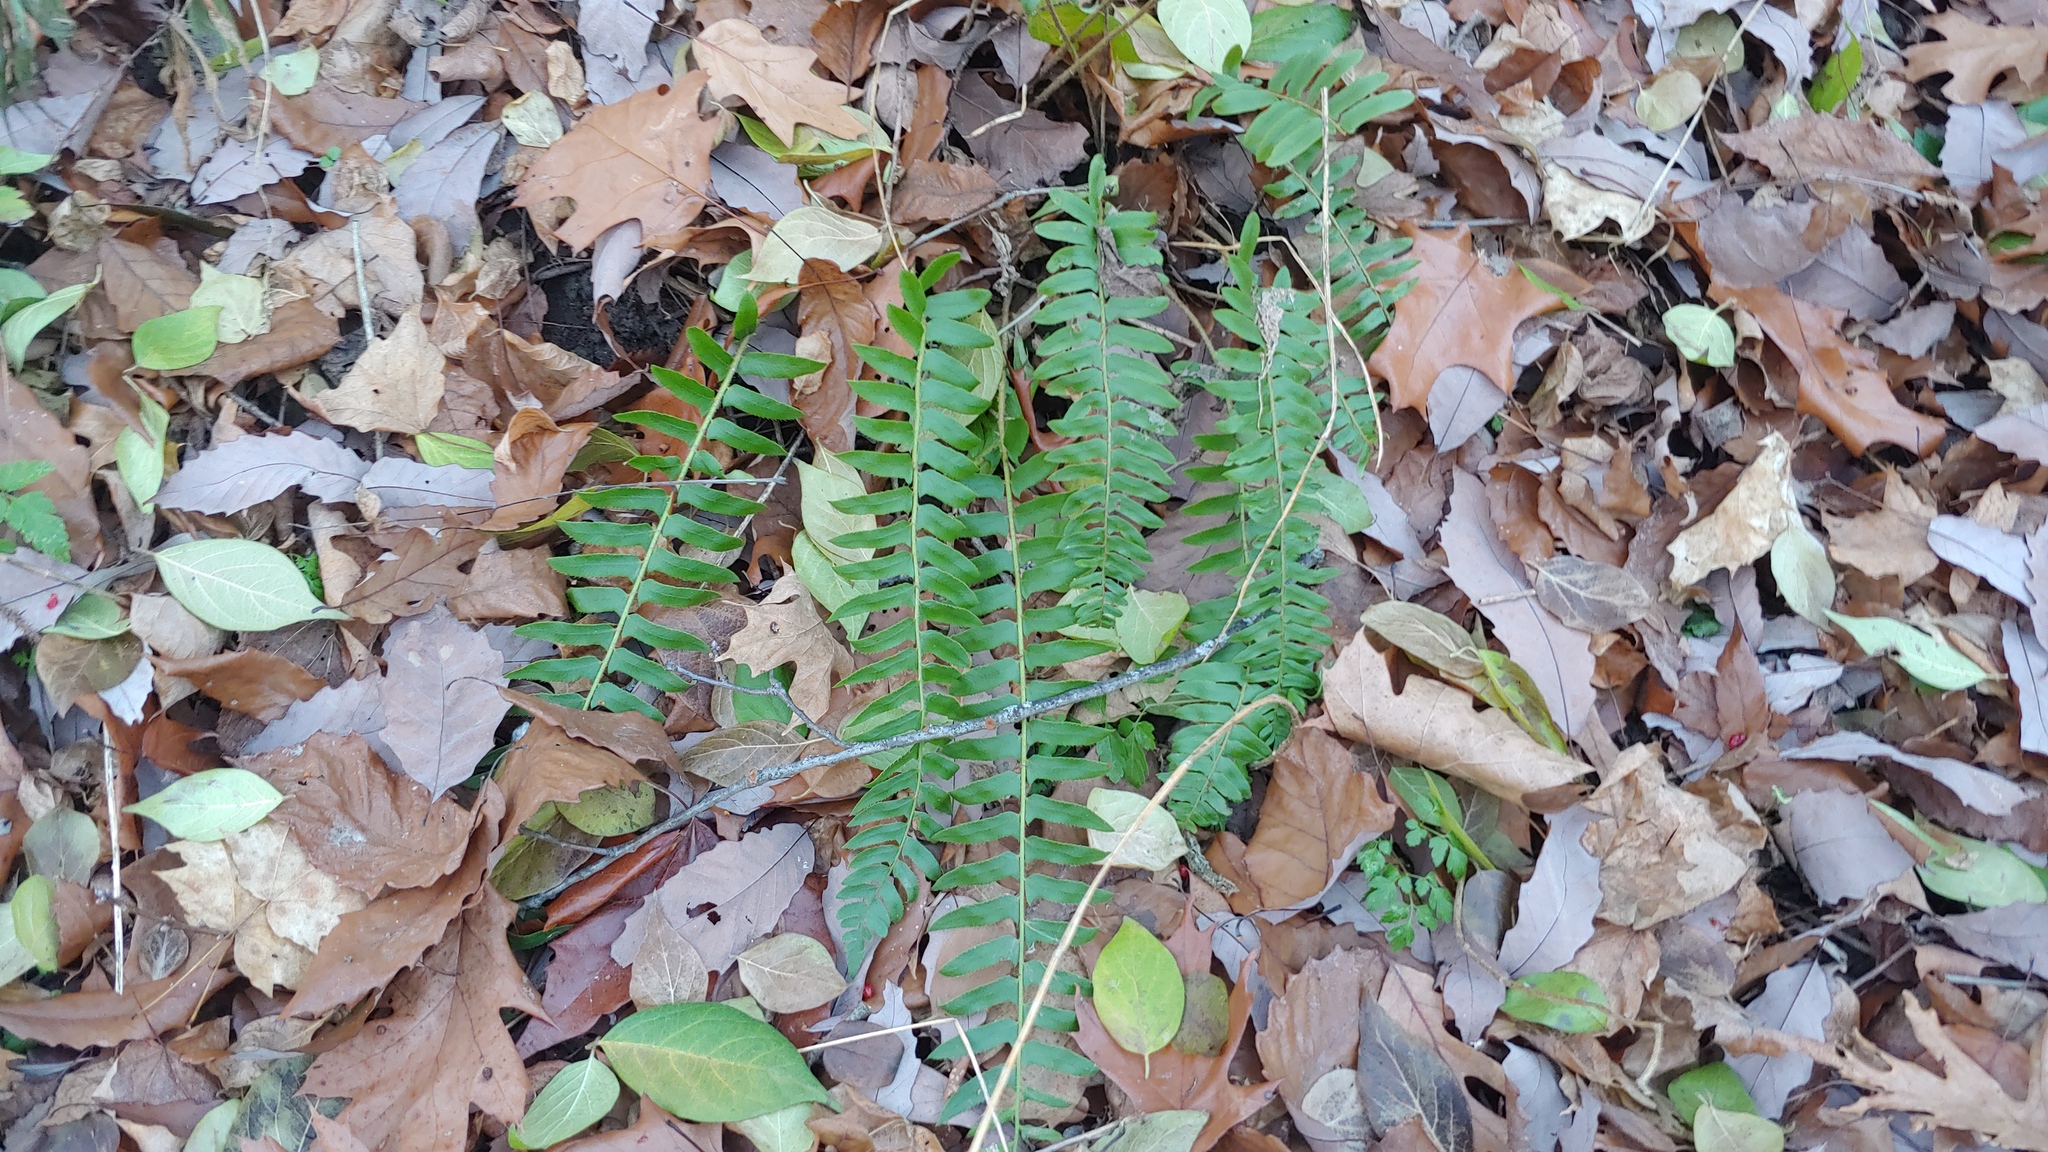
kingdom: Plantae
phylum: Tracheophyta
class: Polypodiopsida
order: Polypodiales
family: Dryopteridaceae
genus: Polystichum
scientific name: Polystichum acrostichoides
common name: Christmas fern
